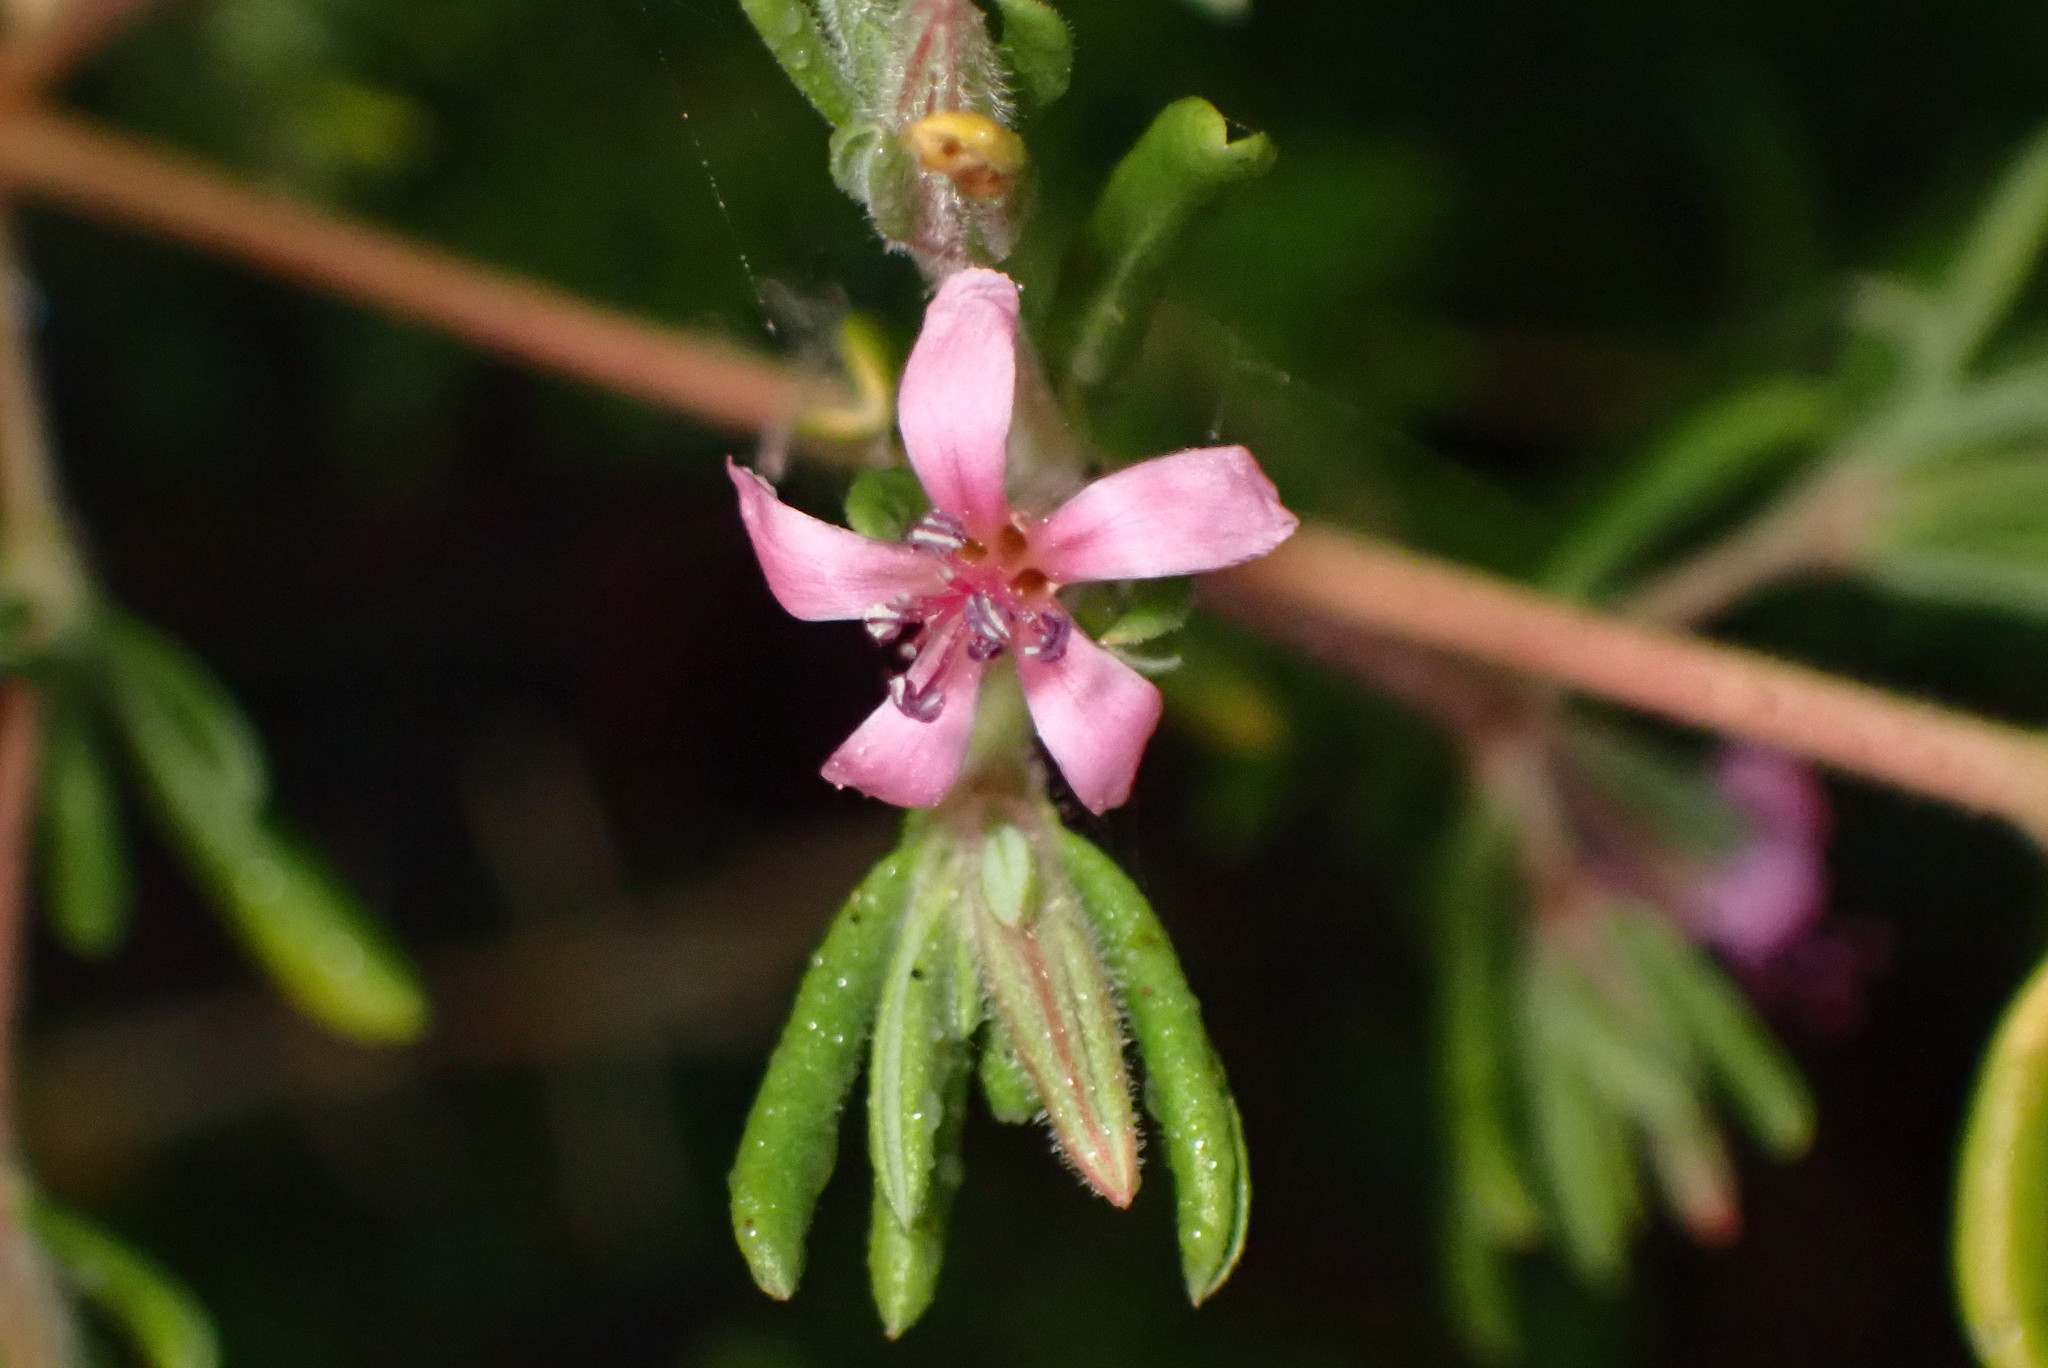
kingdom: Plantae
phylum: Tracheophyta
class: Magnoliopsida
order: Caryophyllales
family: Frankeniaceae
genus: Frankenia
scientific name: Frankenia salina
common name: Alkali seaheath
